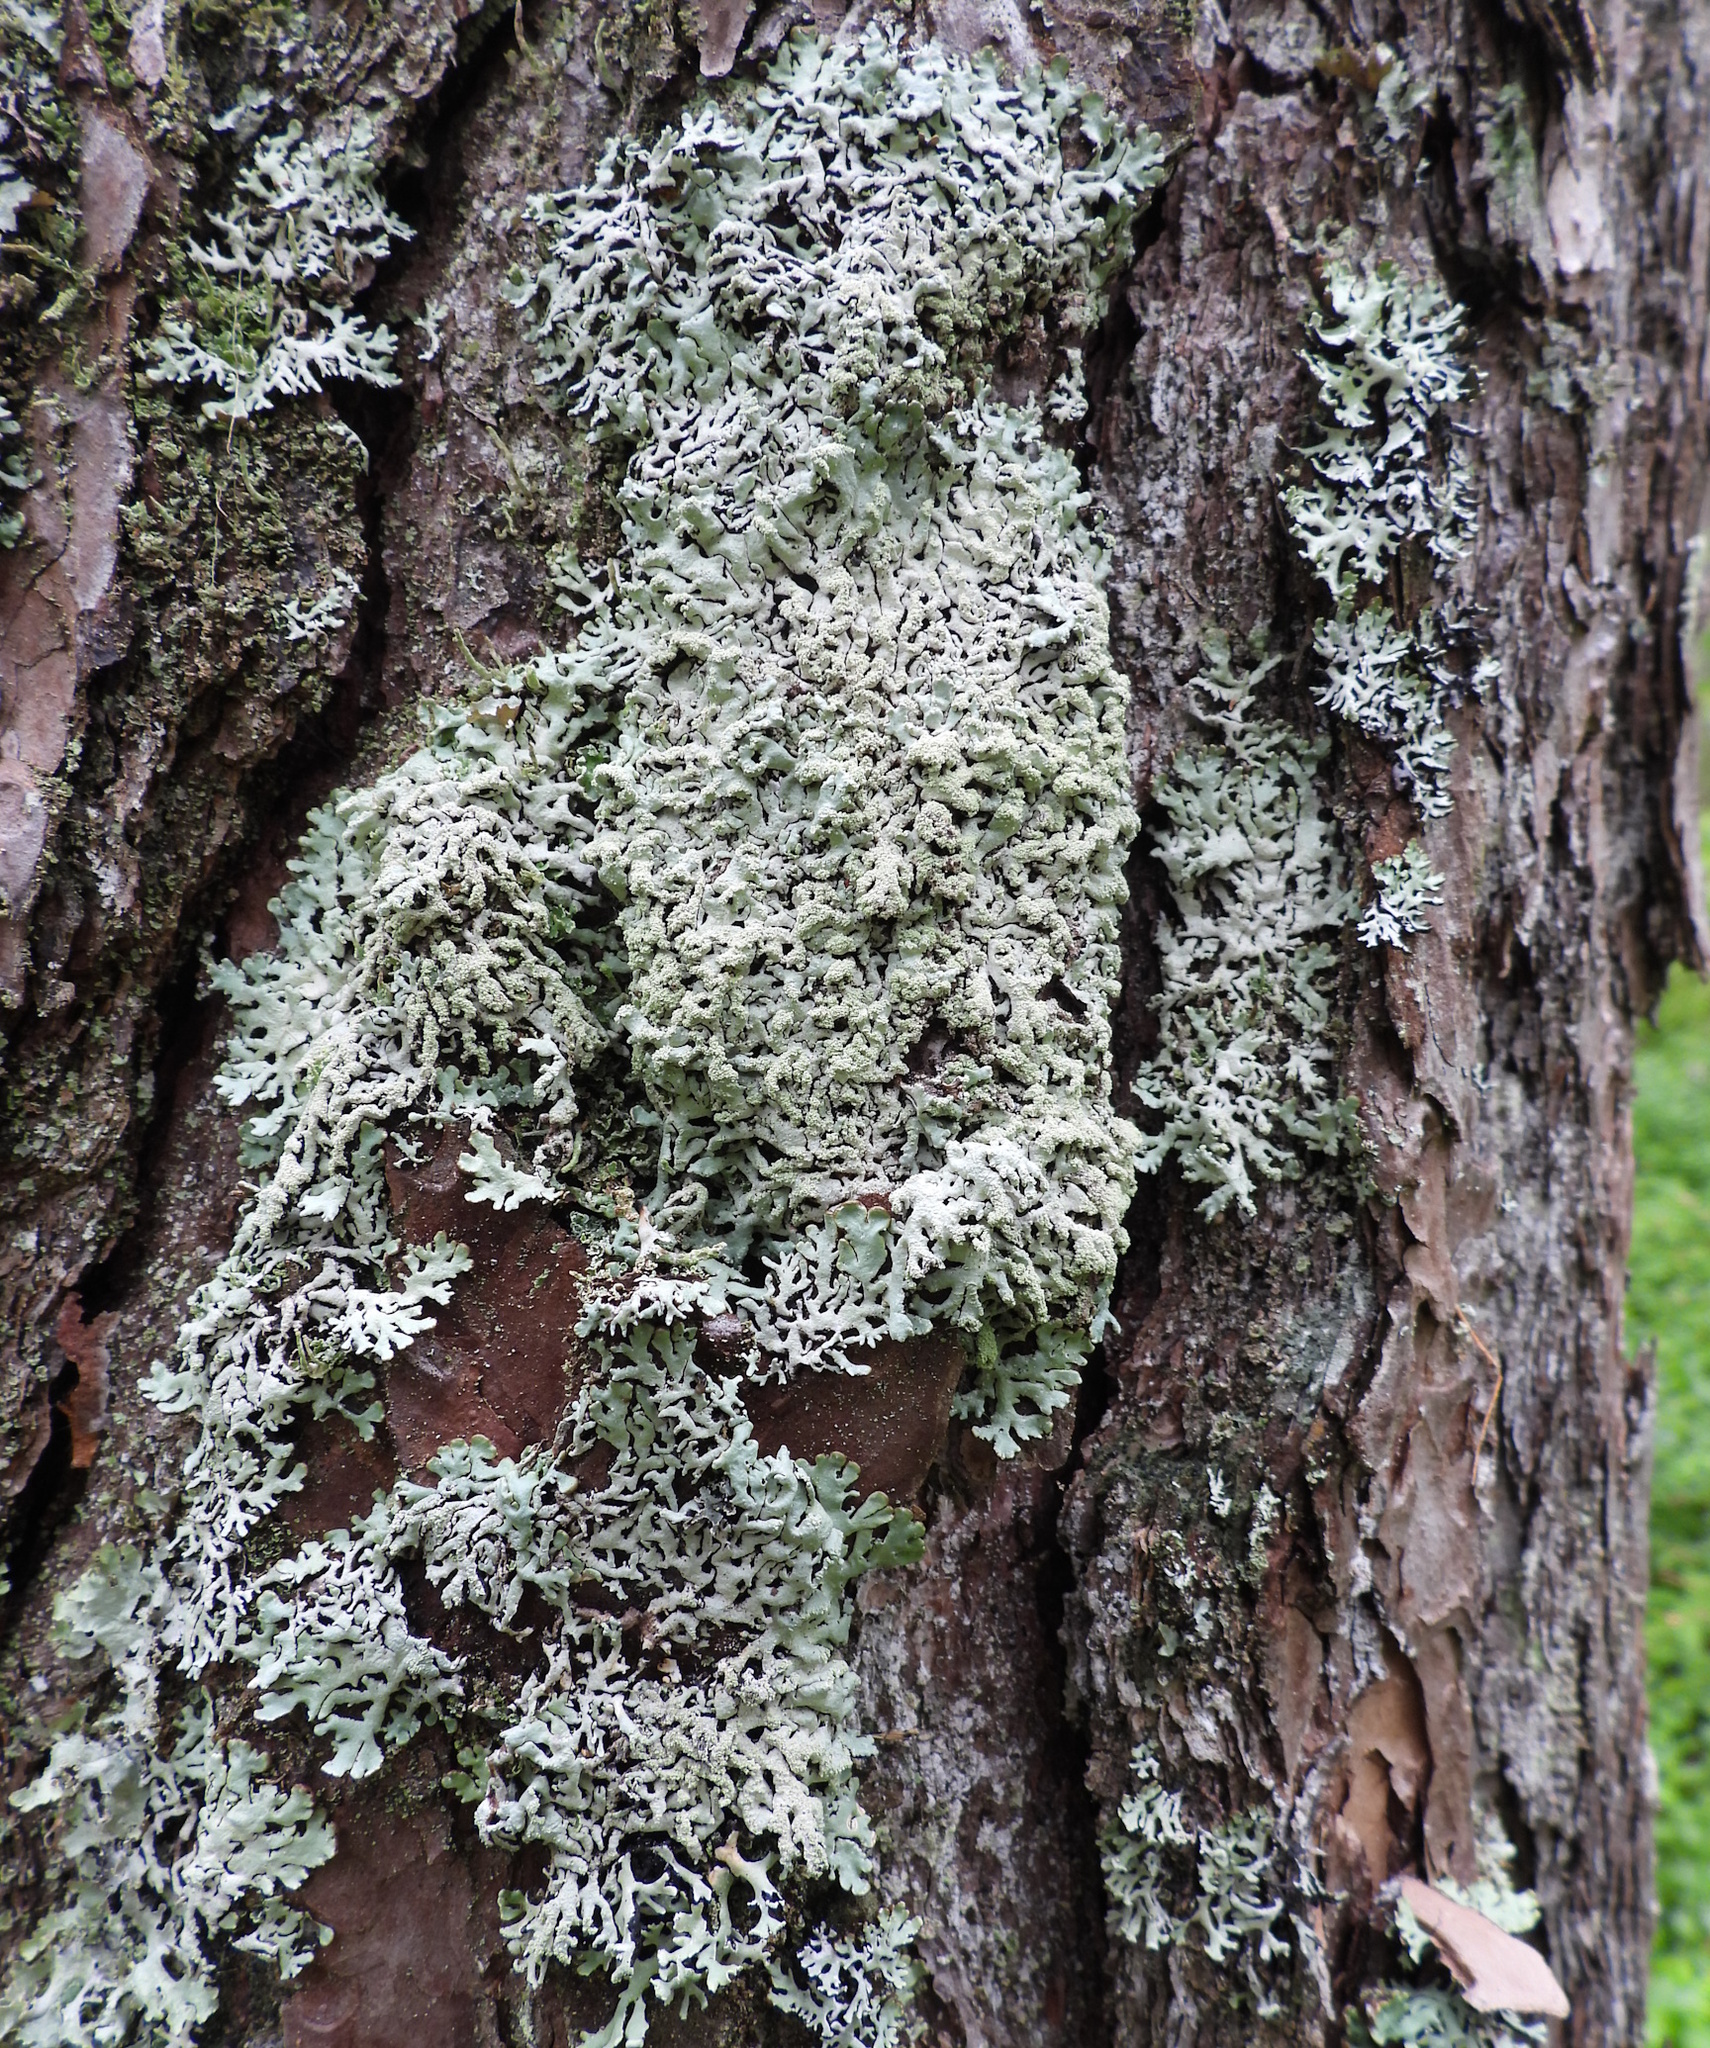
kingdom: Fungi
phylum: Ascomycota
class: Lecanoromycetes
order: Lecanorales
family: Parmeliaceae
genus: Hypogymnia
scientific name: Hypogymnia farinacea
